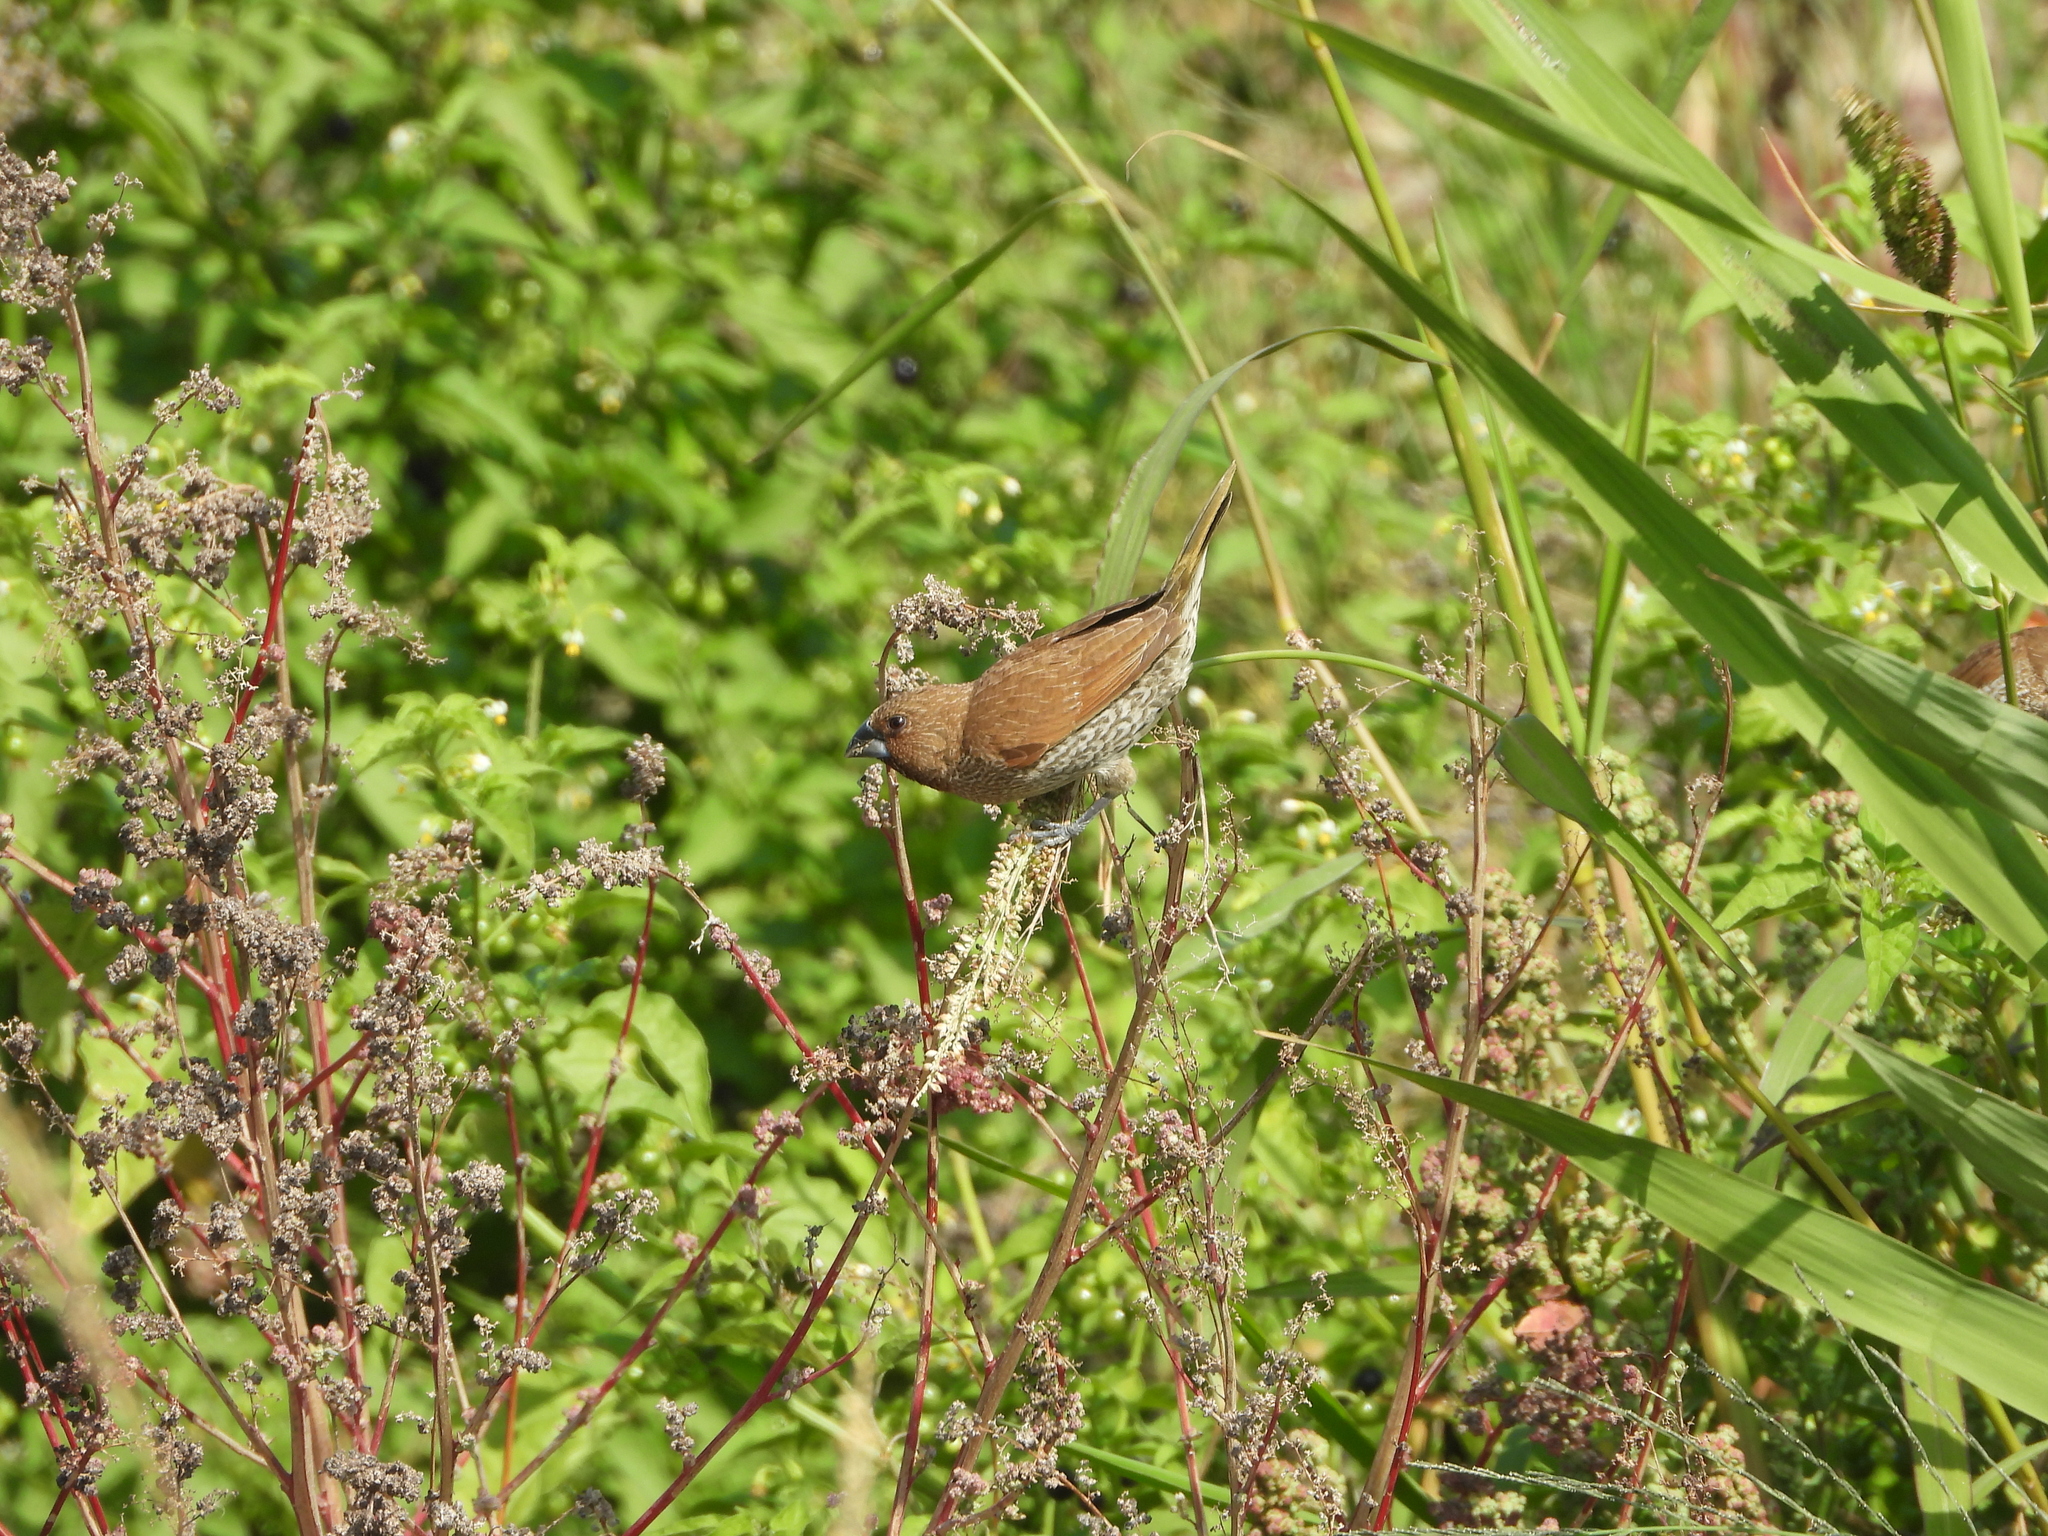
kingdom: Animalia
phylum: Chordata
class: Aves
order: Passeriformes
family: Estrildidae
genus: Lonchura
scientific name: Lonchura punctulata
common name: Scaly-breasted munia
